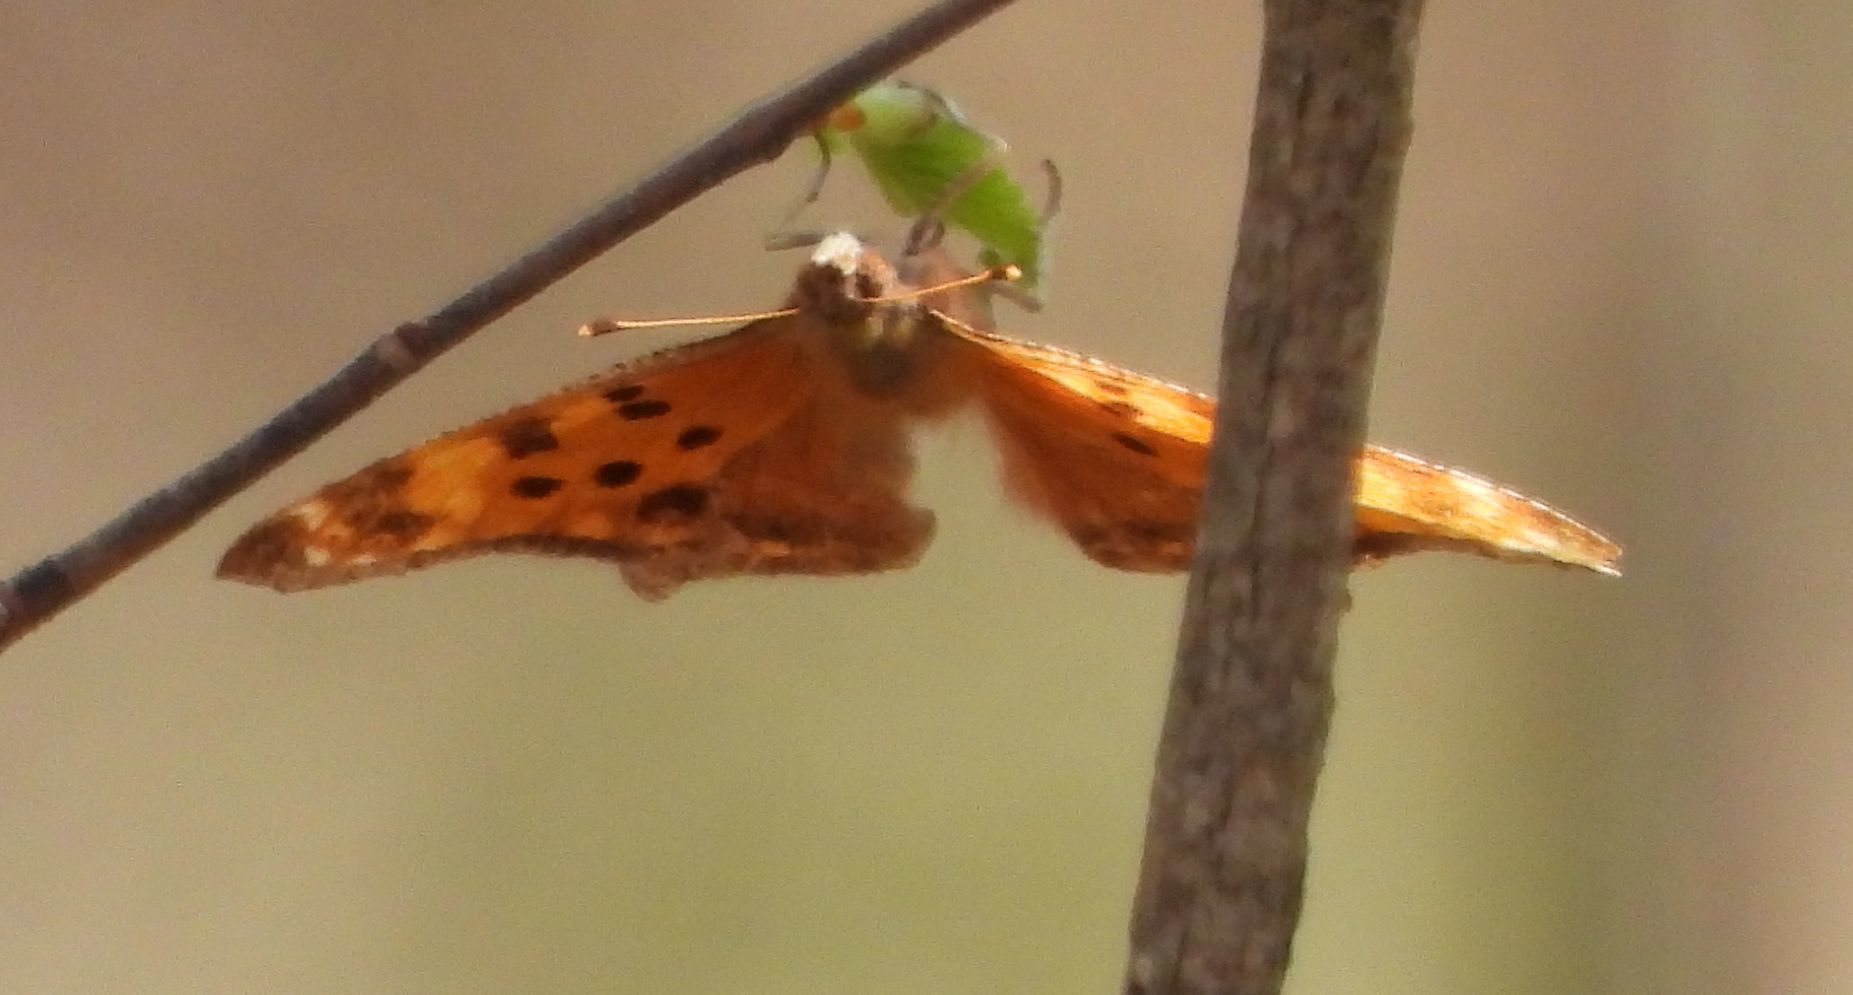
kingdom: Animalia
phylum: Arthropoda
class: Insecta
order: Lepidoptera
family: Nymphalidae
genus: Polygonia
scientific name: Polygonia comma
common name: Eastern comma
